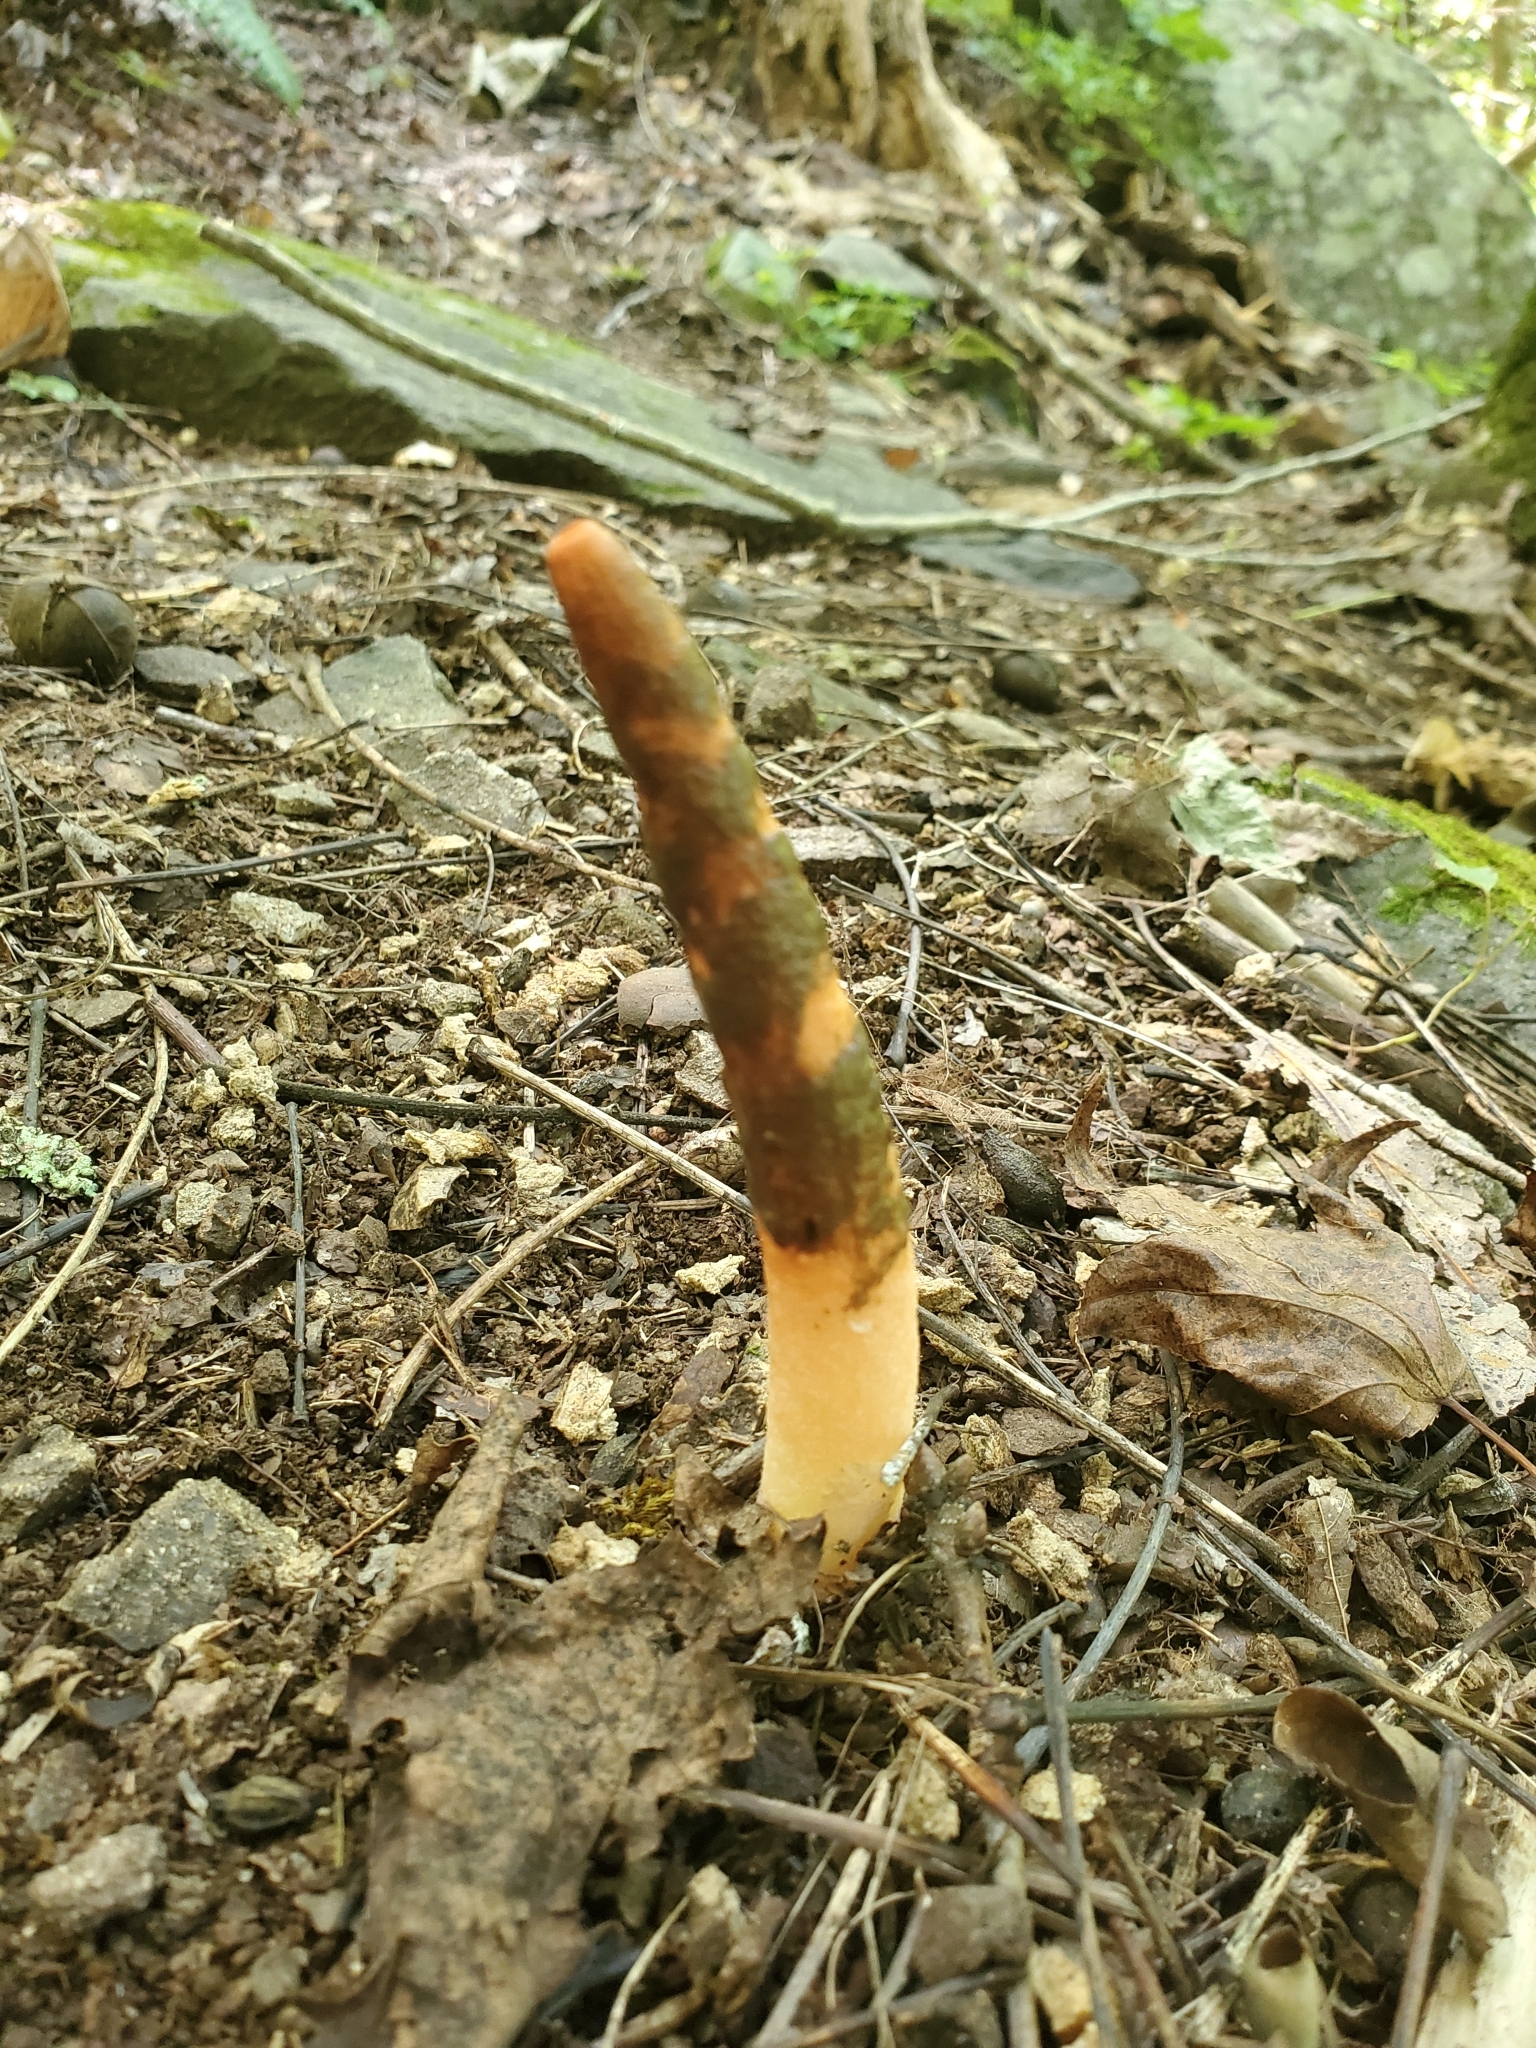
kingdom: Fungi
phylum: Basidiomycota
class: Agaricomycetes
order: Phallales
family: Phallaceae
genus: Mutinus
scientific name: Mutinus elegans
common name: Devil's dipstick
